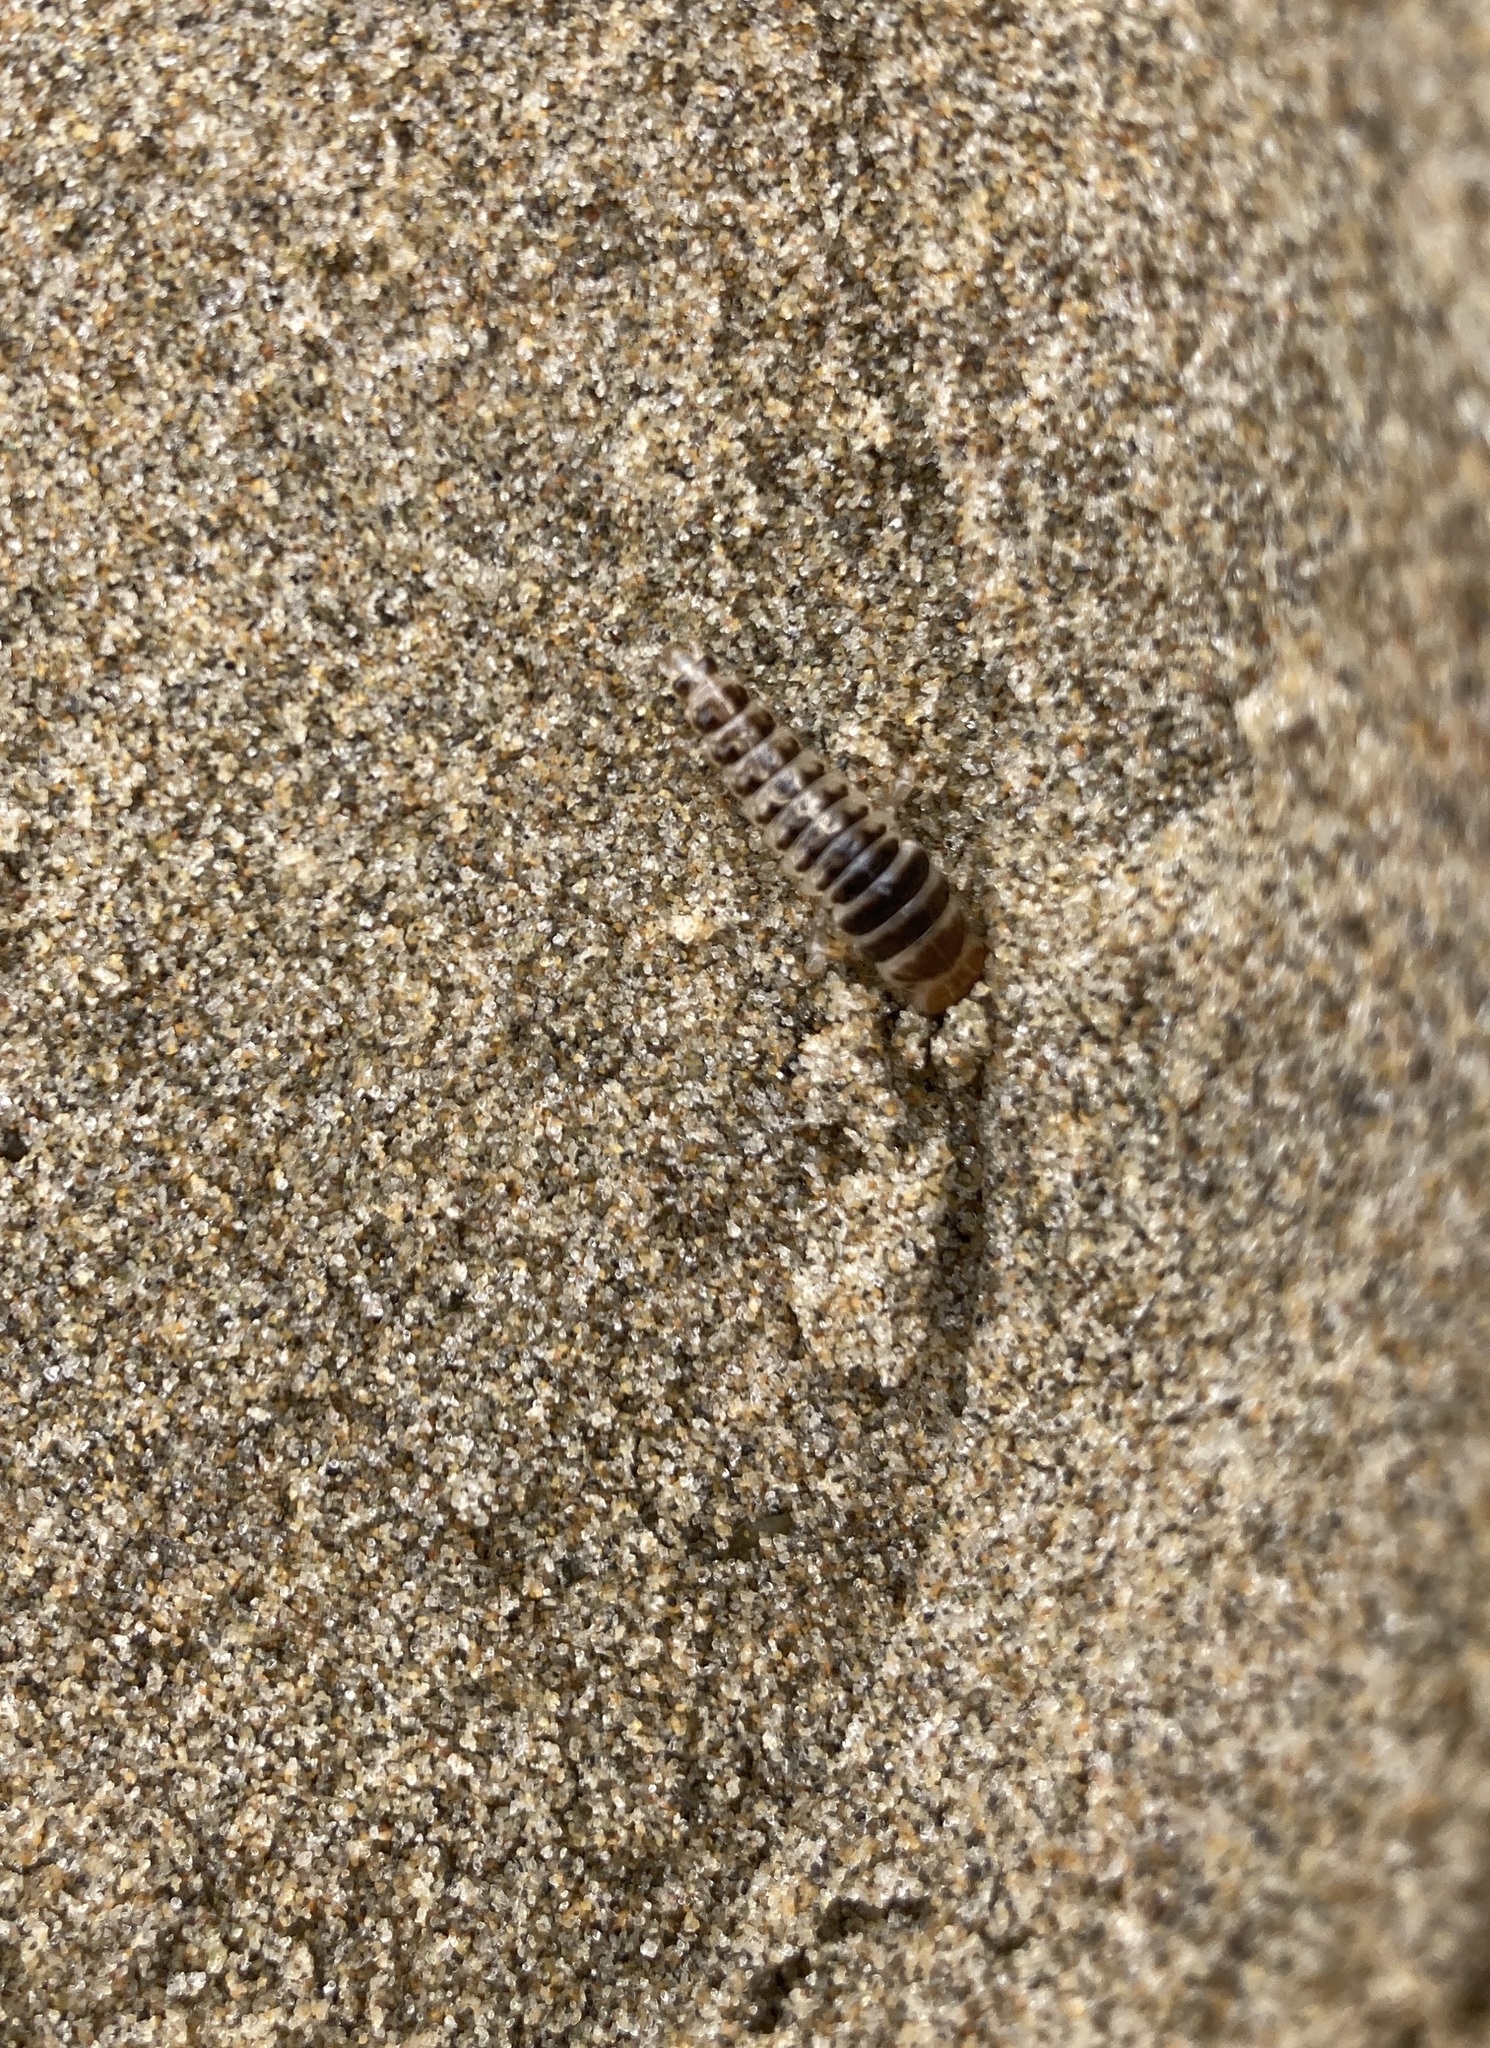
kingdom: Animalia
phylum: Arthropoda
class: Insecta
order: Coleoptera
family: Staphylinidae
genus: Thinopinus
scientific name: Thinopinus pictus
